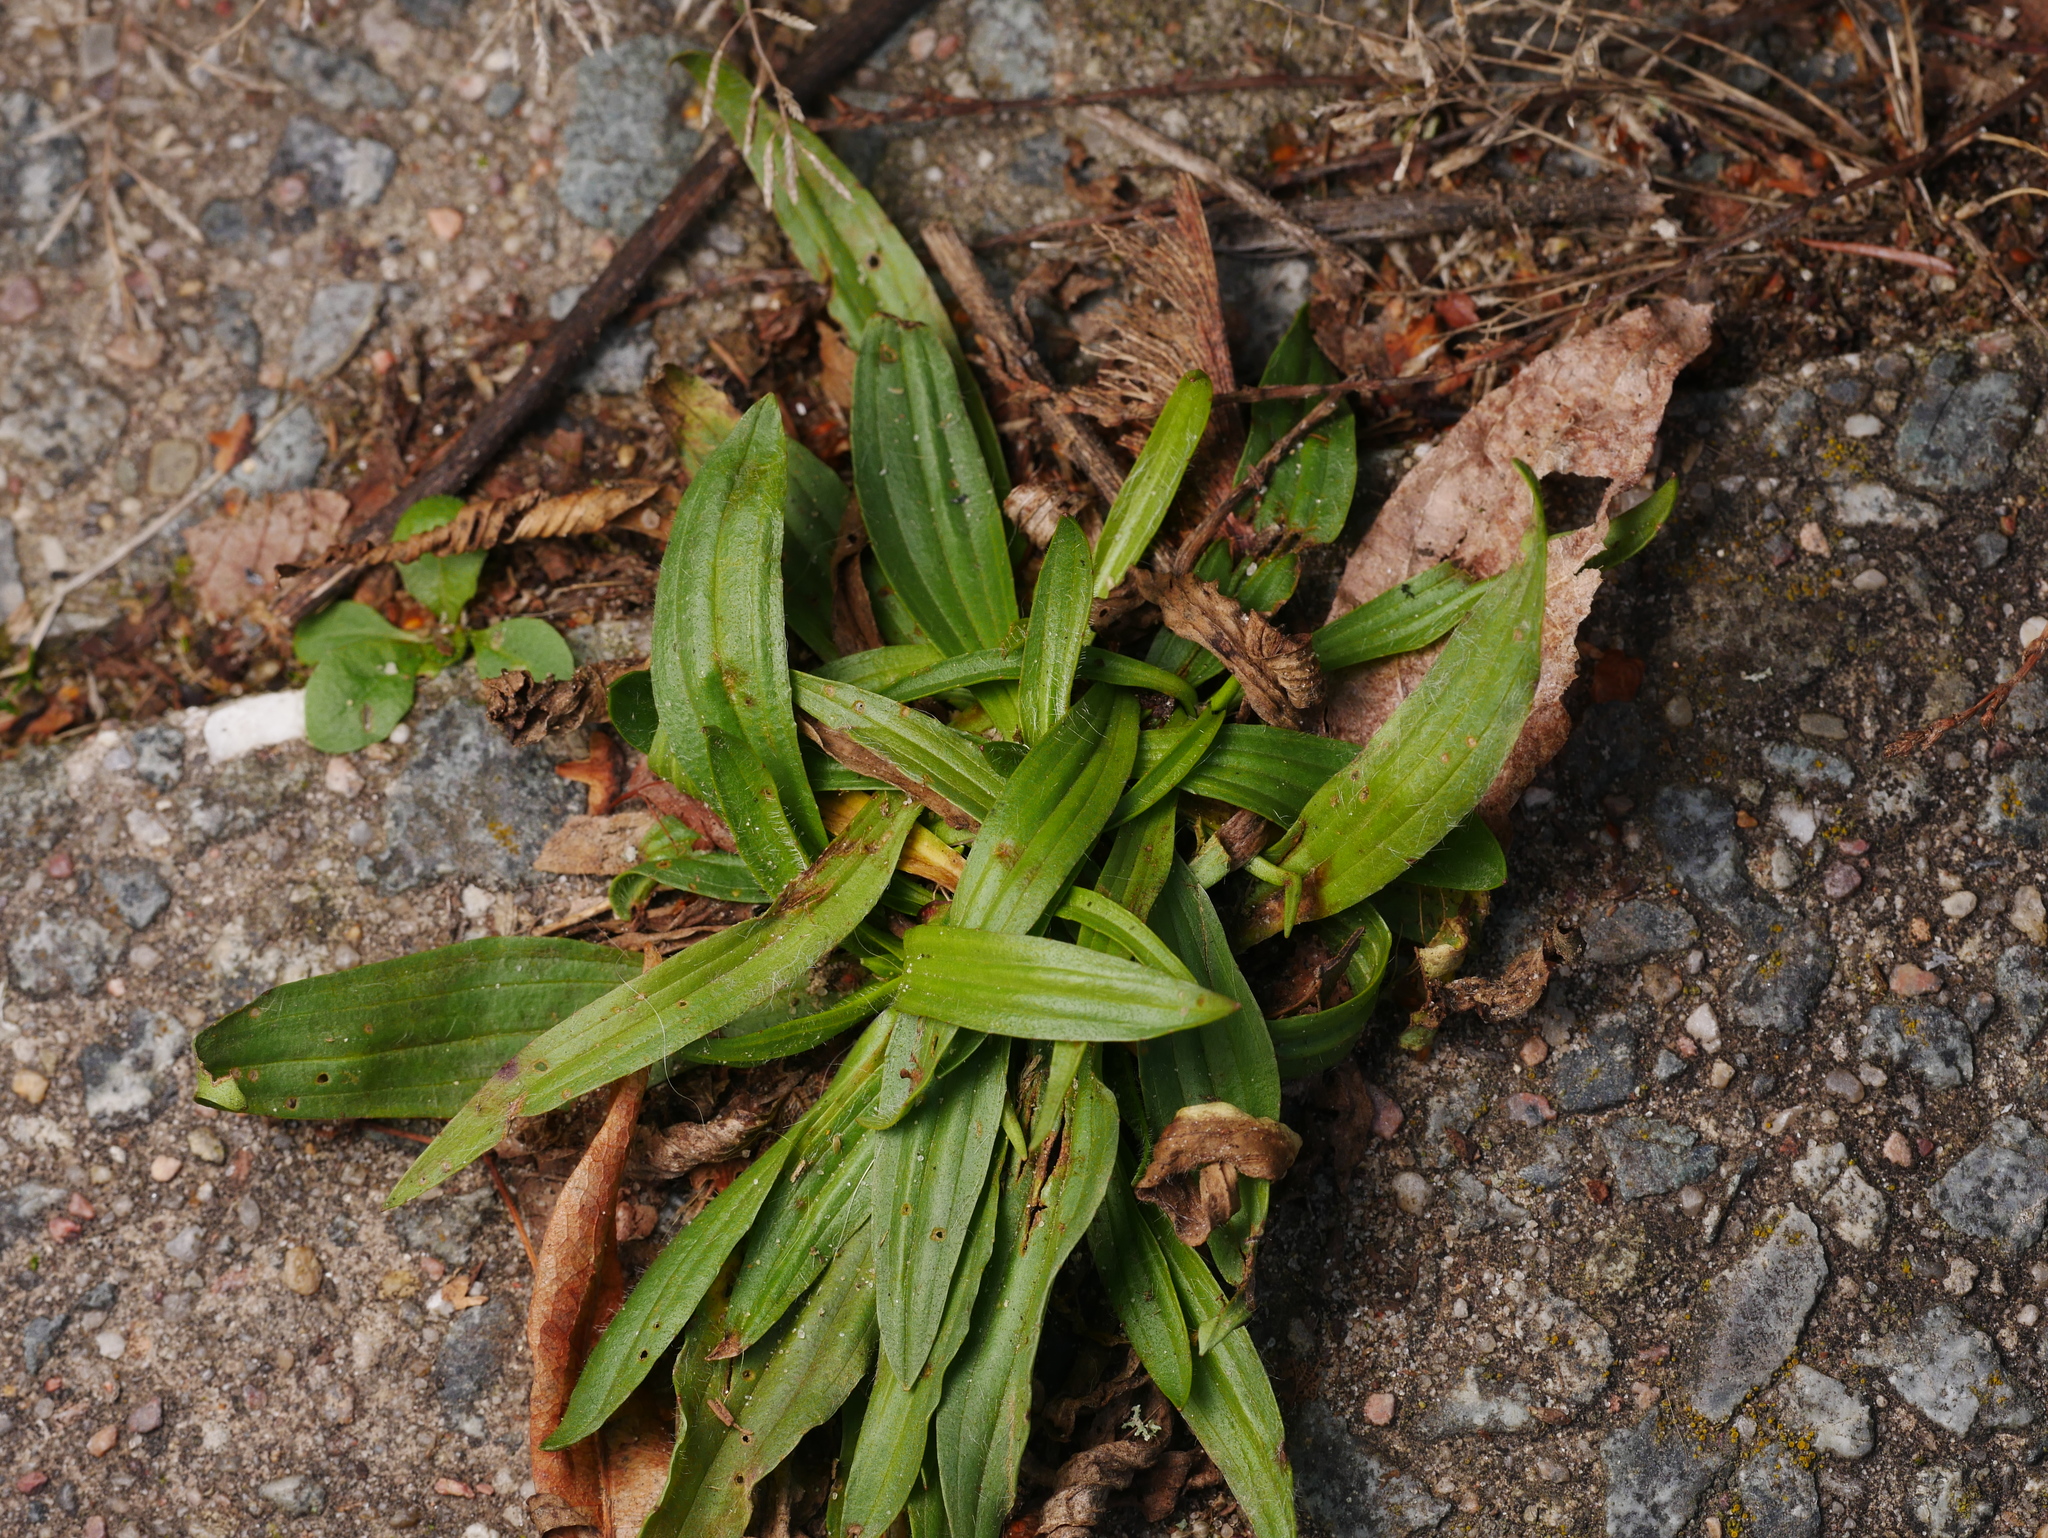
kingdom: Plantae
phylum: Tracheophyta
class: Magnoliopsida
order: Lamiales
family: Plantaginaceae
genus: Plantago
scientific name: Plantago lanceolata
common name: Ribwort plantain
